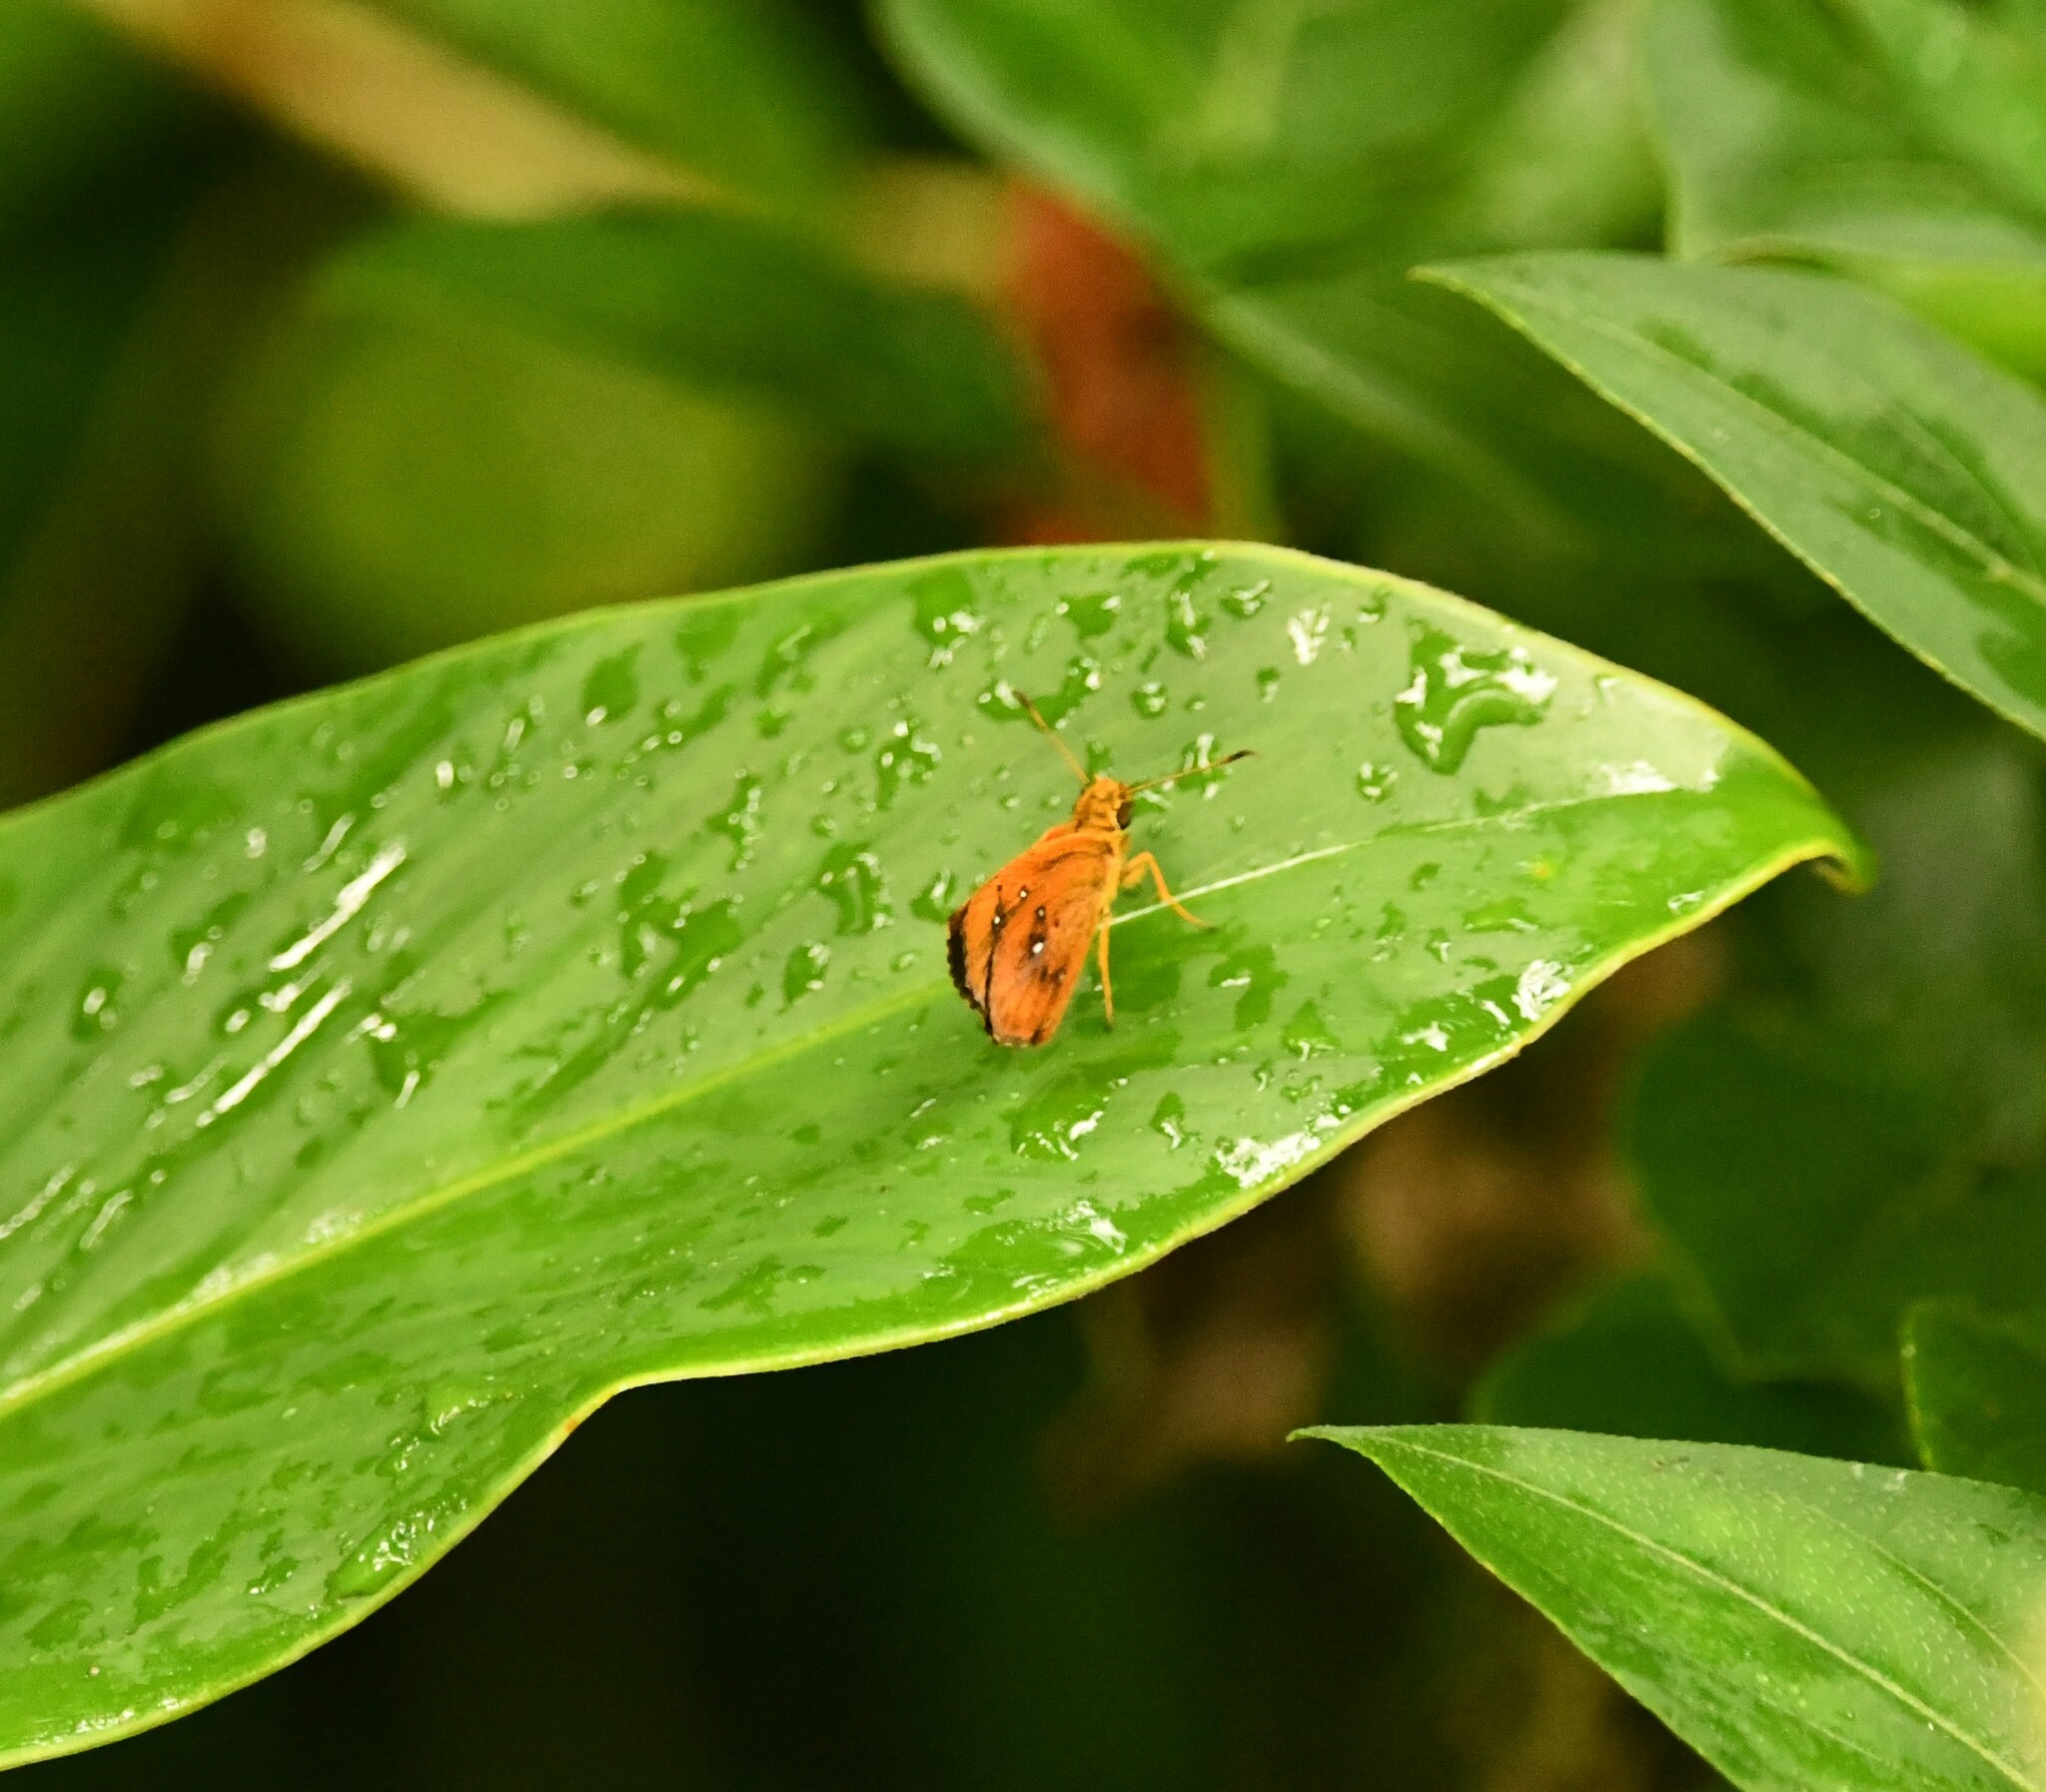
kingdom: Animalia
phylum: Arthropoda
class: Insecta
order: Lepidoptera
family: Hesperiidae
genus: Iambrix
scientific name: Iambrix salsala
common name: Chestnut bob
